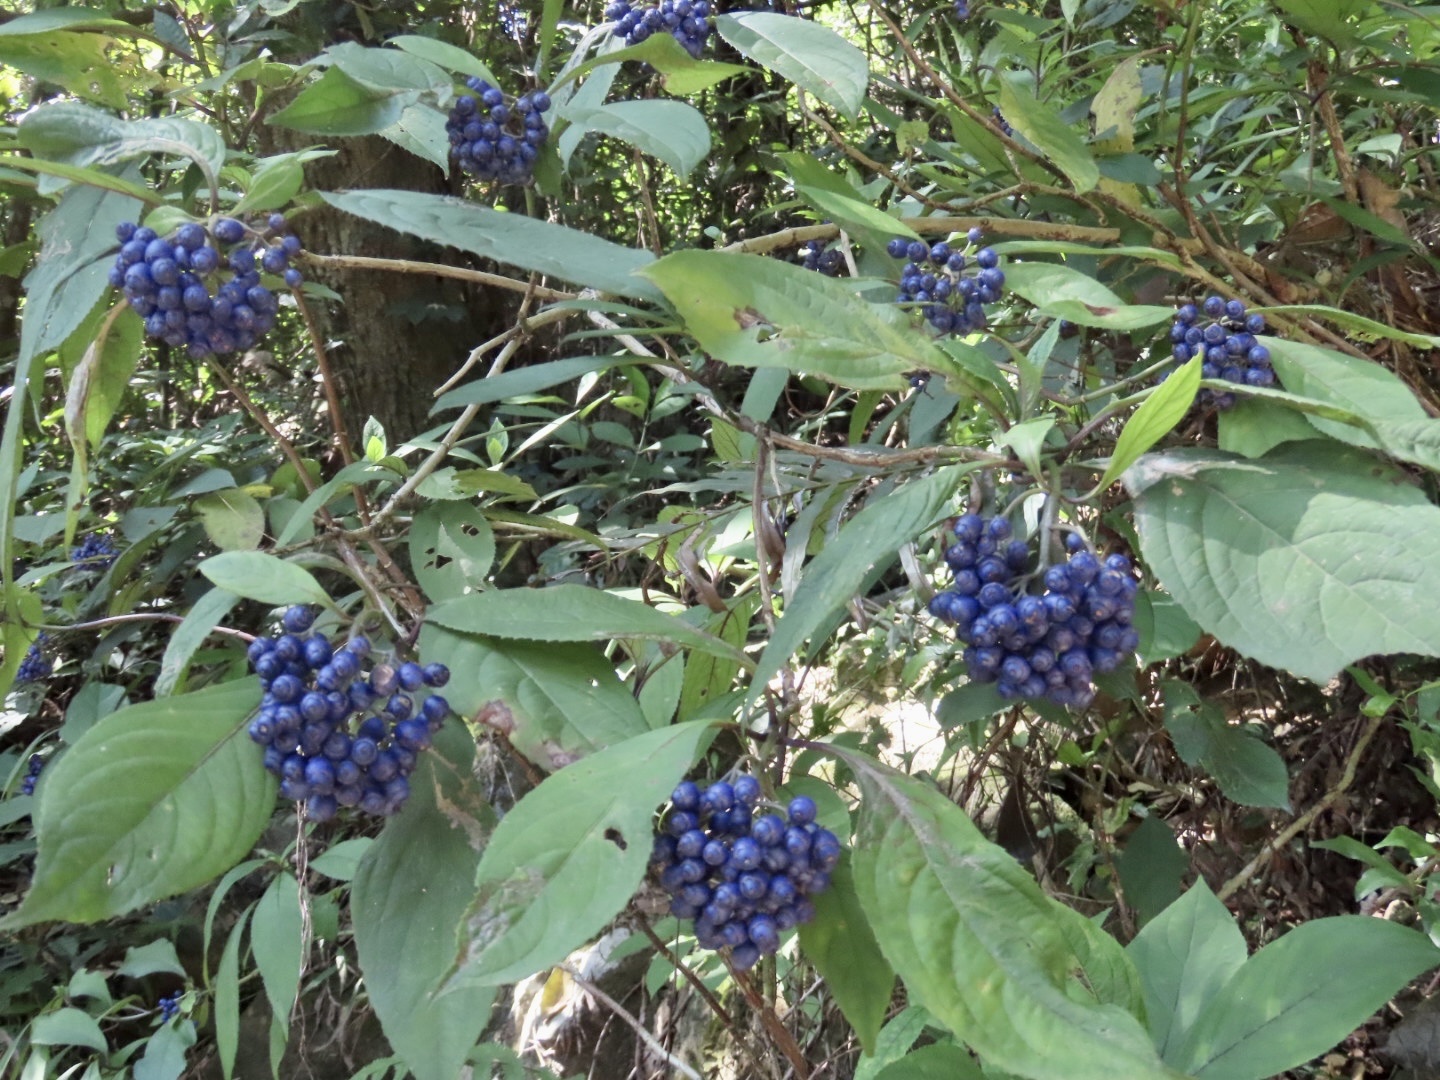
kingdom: Plantae
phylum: Tracheophyta
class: Magnoliopsida
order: Cornales
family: Hydrangeaceae
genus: Hydrangea
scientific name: Hydrangea febrifuga
